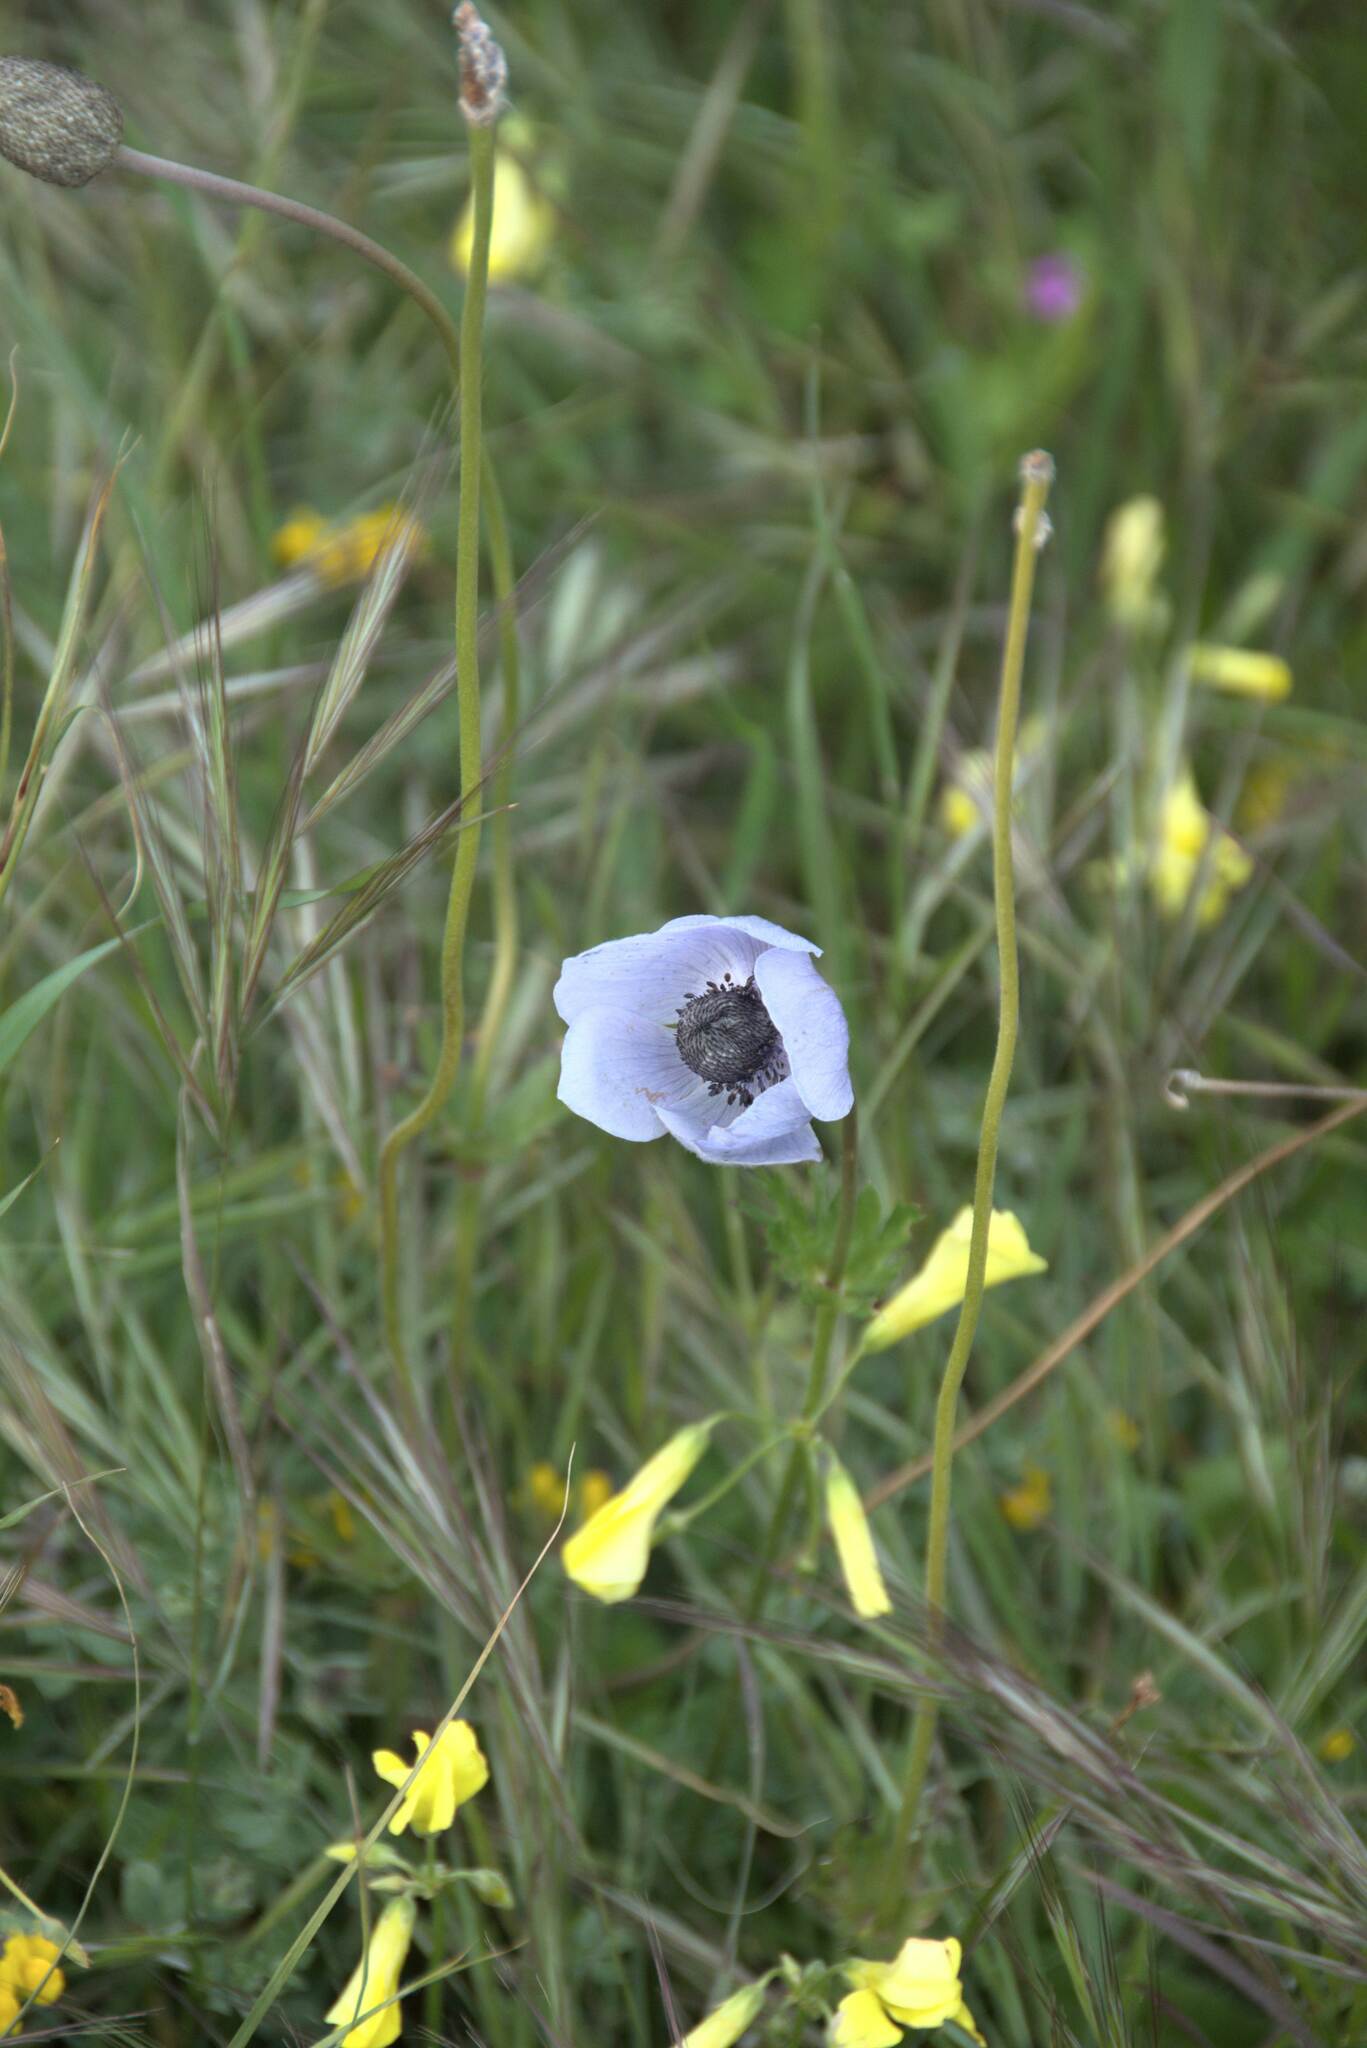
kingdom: Plantae
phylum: Tracheophyta
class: Magnoliopsida
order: Ranunculales
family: Ranunculaceae
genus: Anemone
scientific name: Anemone coronaria
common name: Poppy anemone
